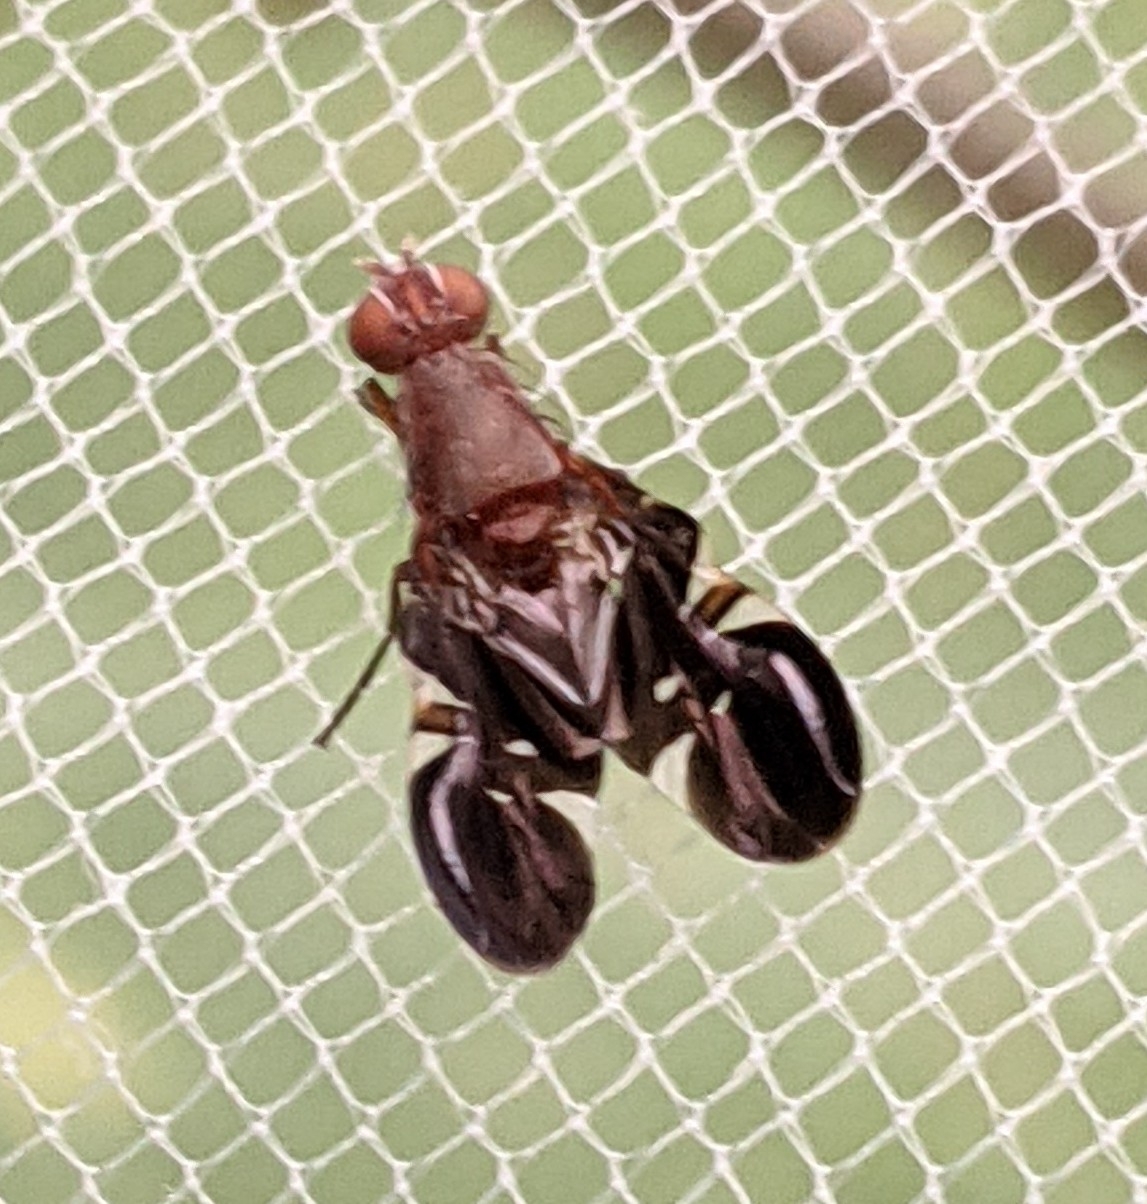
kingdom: Animalia
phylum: Arthropoda
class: Insecta
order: Diptera
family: Ulidiidae
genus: Delphinia
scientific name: Delphinia picta
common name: Common picture-winged fly
